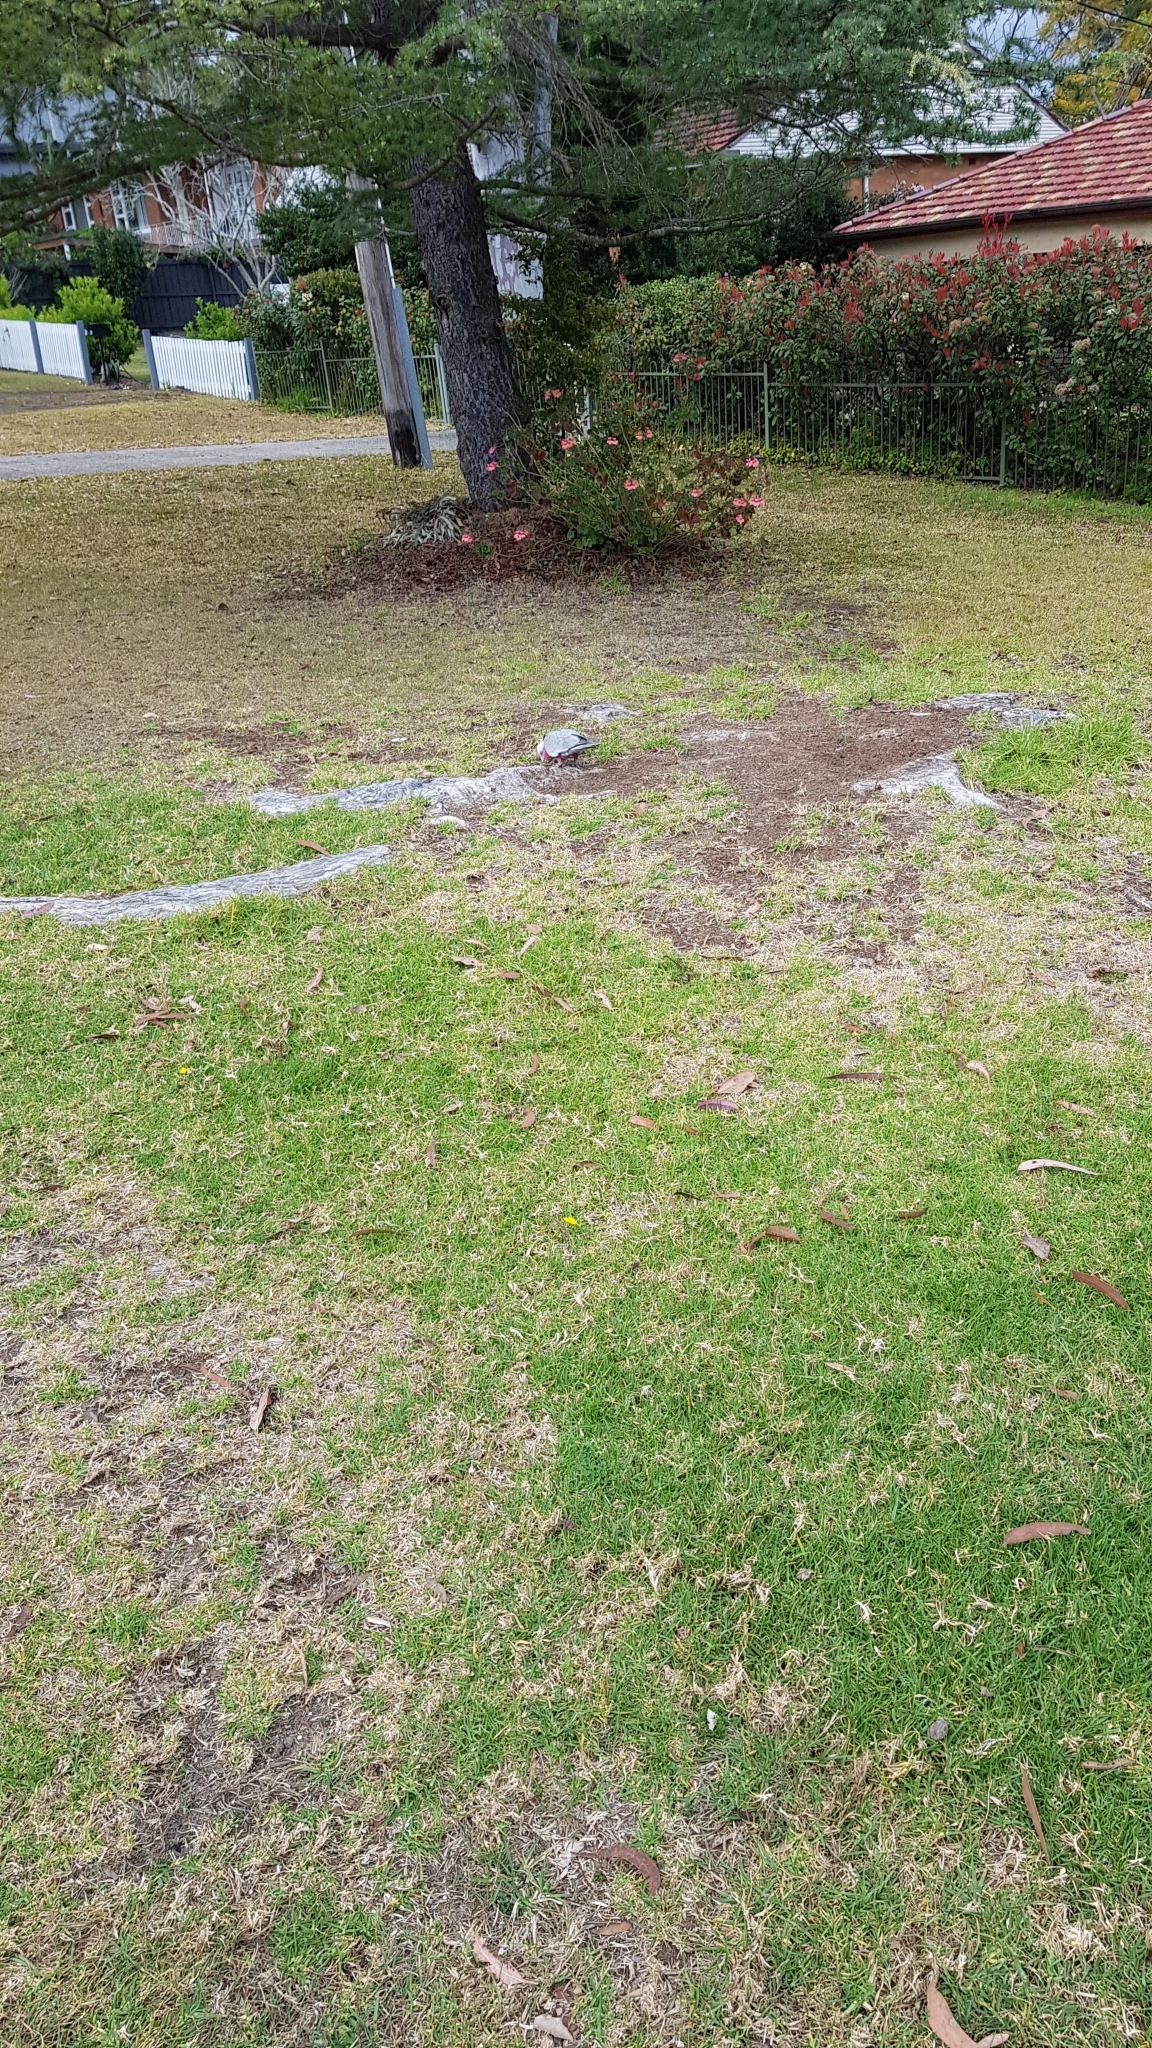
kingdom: Animalia
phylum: Chordata
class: Aves
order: Psittaciformes
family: Psittacidae
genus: Eolophus
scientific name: Eolophus roseicapilla
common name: Galah
